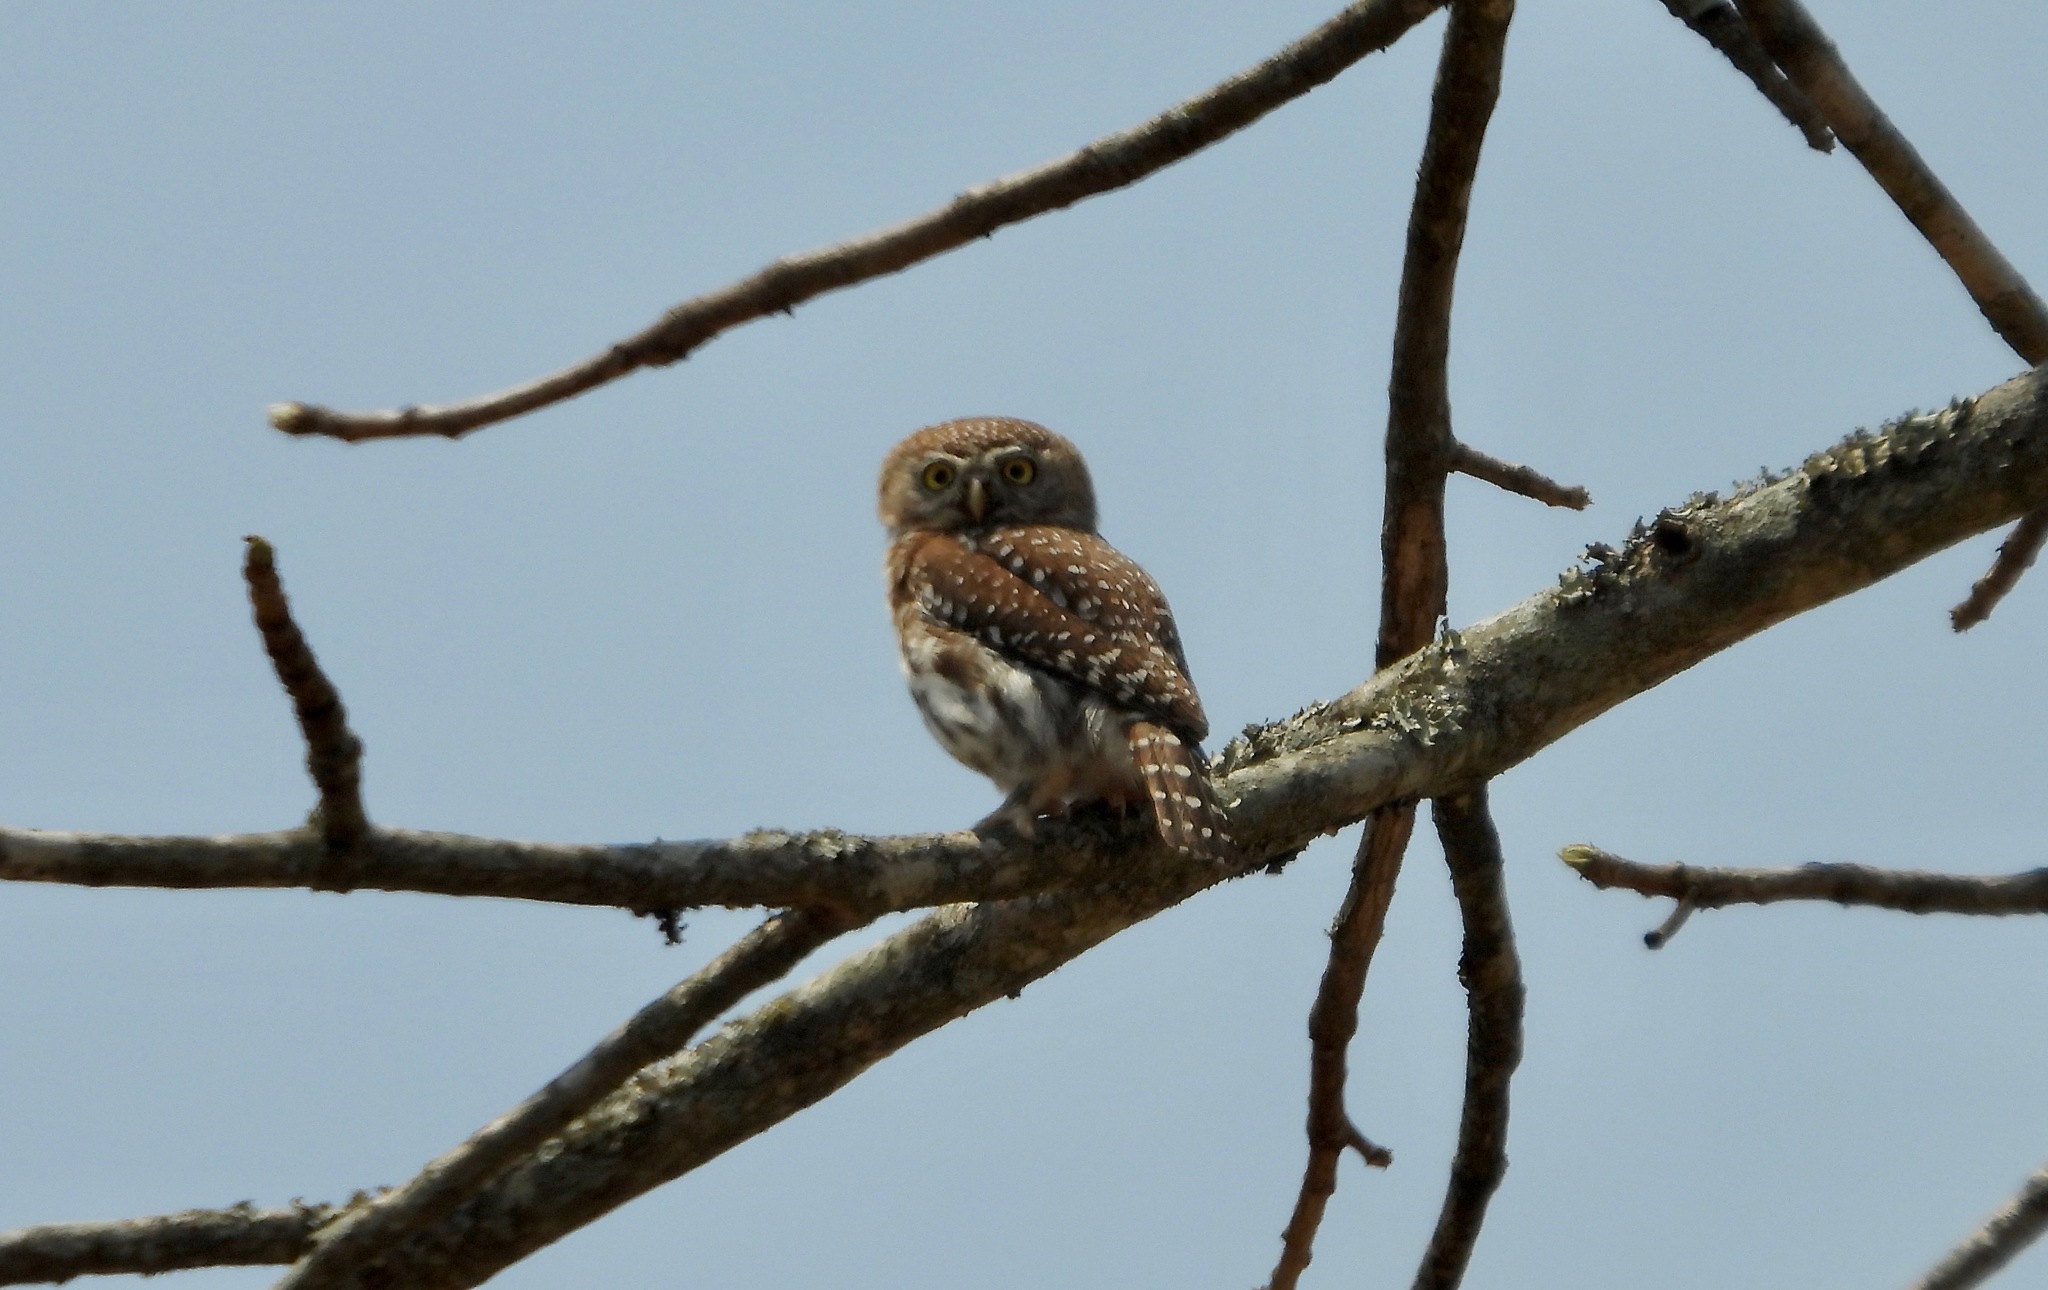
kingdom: Animalia
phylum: Chordata
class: Aves
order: Strigiformes
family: Strigidae
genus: Glaucidium
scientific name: Glaucidium perlatum
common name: Pearl-spotted owlet
